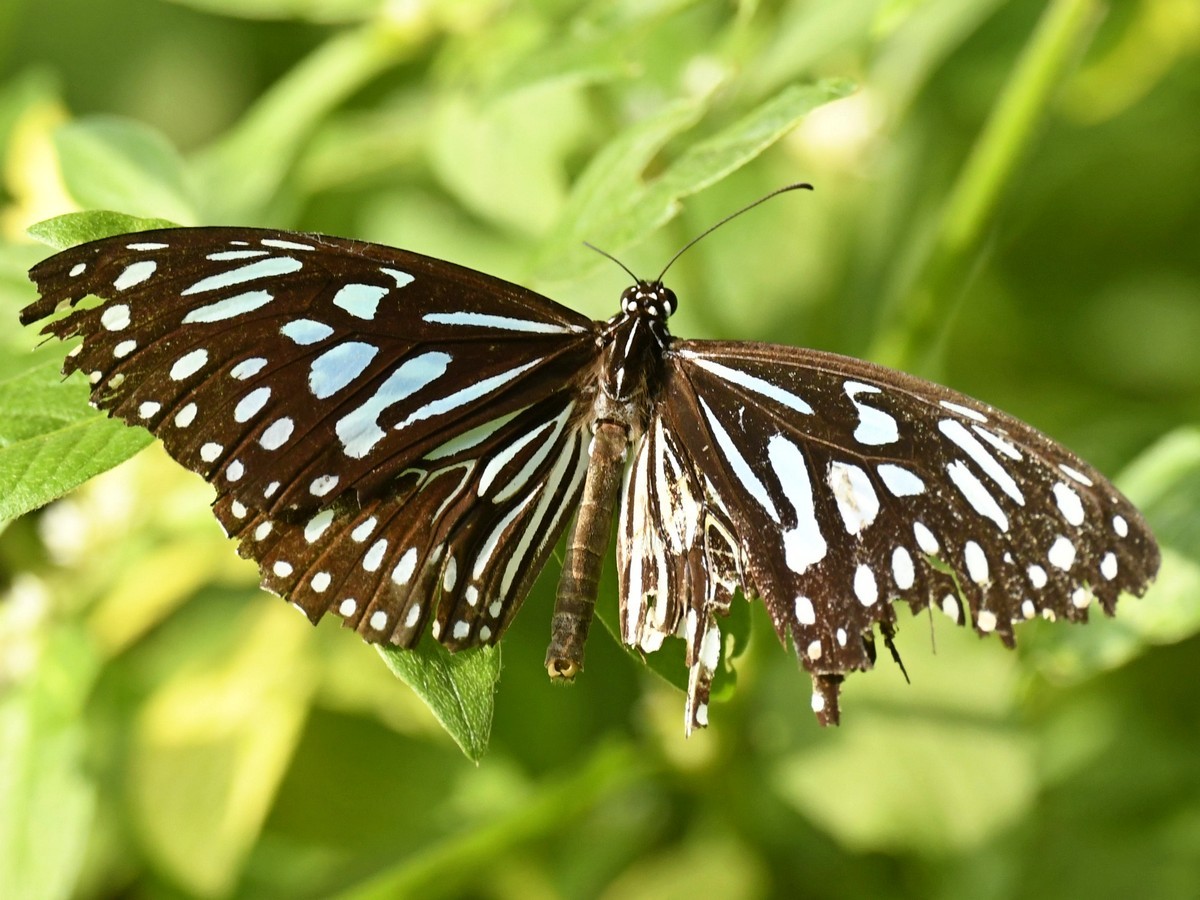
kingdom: Animalia
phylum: Arthropoda
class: Insecta
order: Lepidoptera
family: Nymphalidae
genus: Tirumala
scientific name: Tirumala septentrionis
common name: Dark blue tiger butterfly
